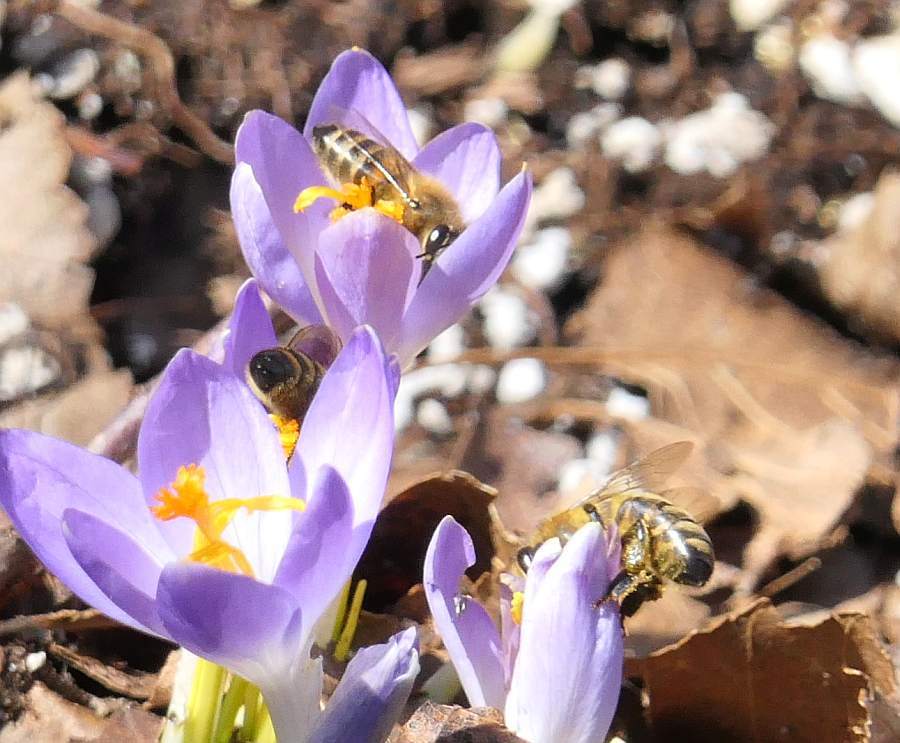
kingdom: Animalia
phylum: Arthropoda
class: Insecta
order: Hymenoptera
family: Apidae
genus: Apis
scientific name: Apis mellifera
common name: Honey bee
